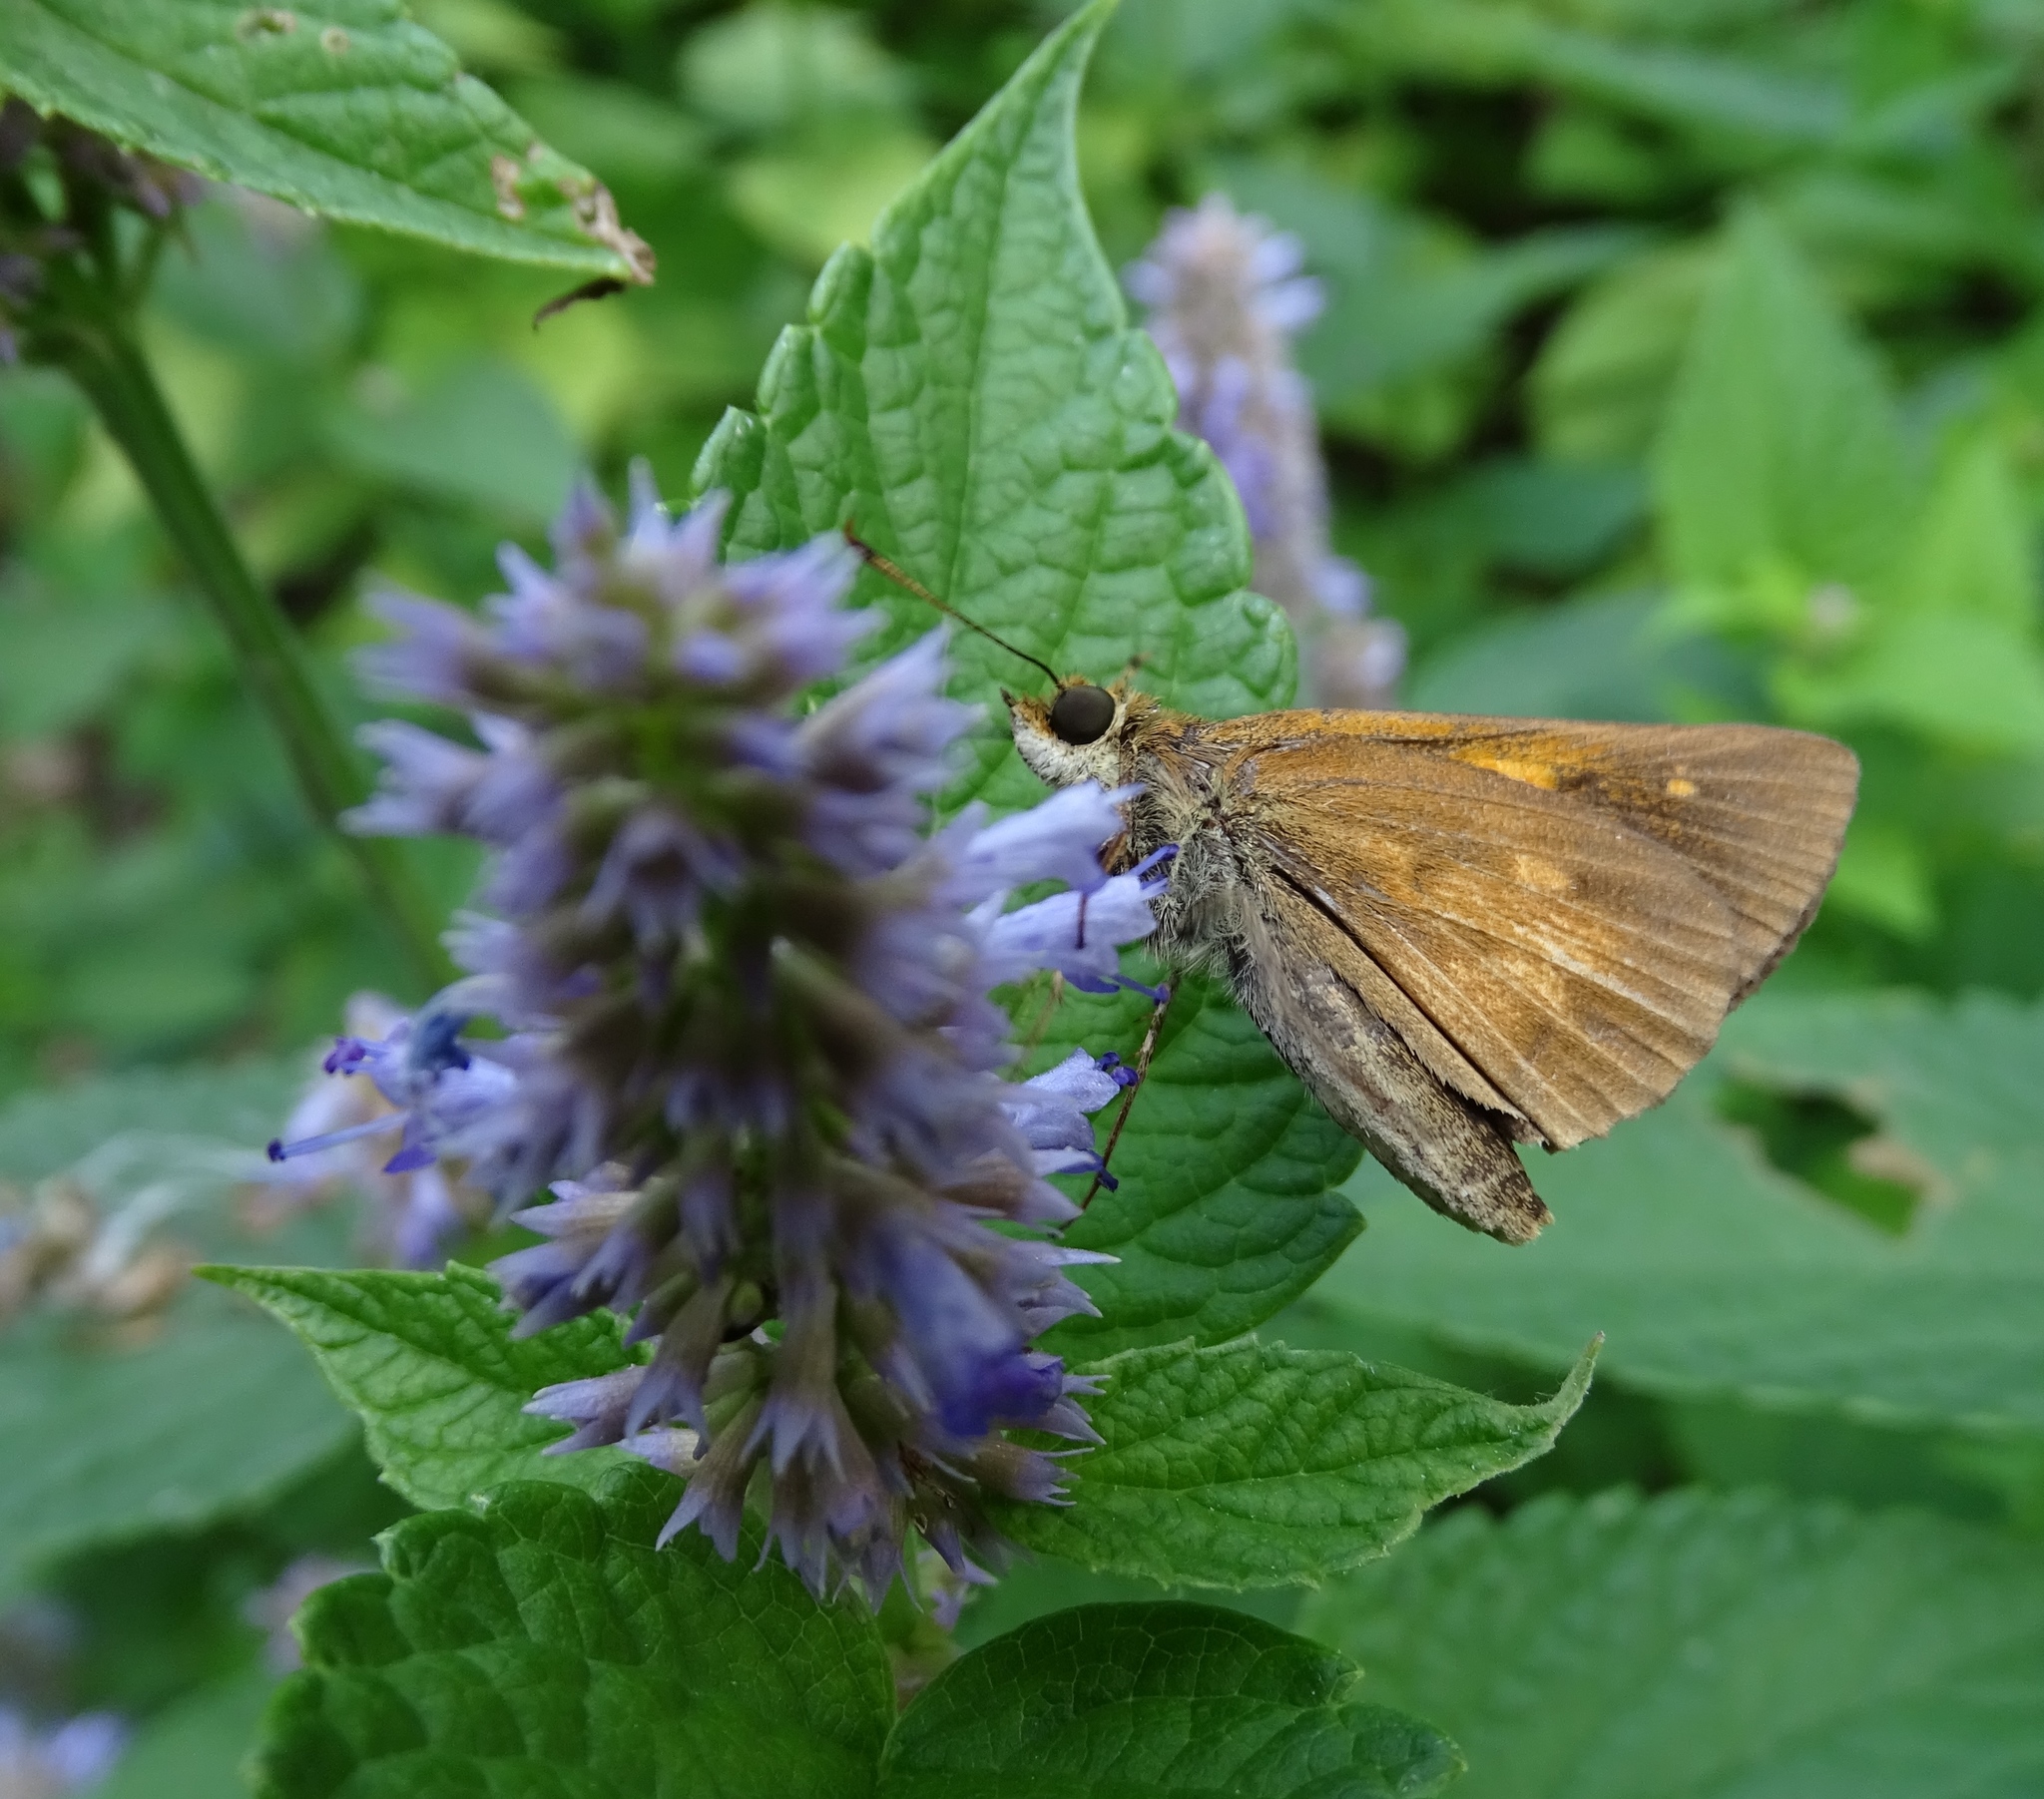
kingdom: Animalia
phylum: Arthropoda
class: Insecta
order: Lepidoptera
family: Hesperiidae
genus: Poanes
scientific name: Poanes viator
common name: Broad-winged skipper
